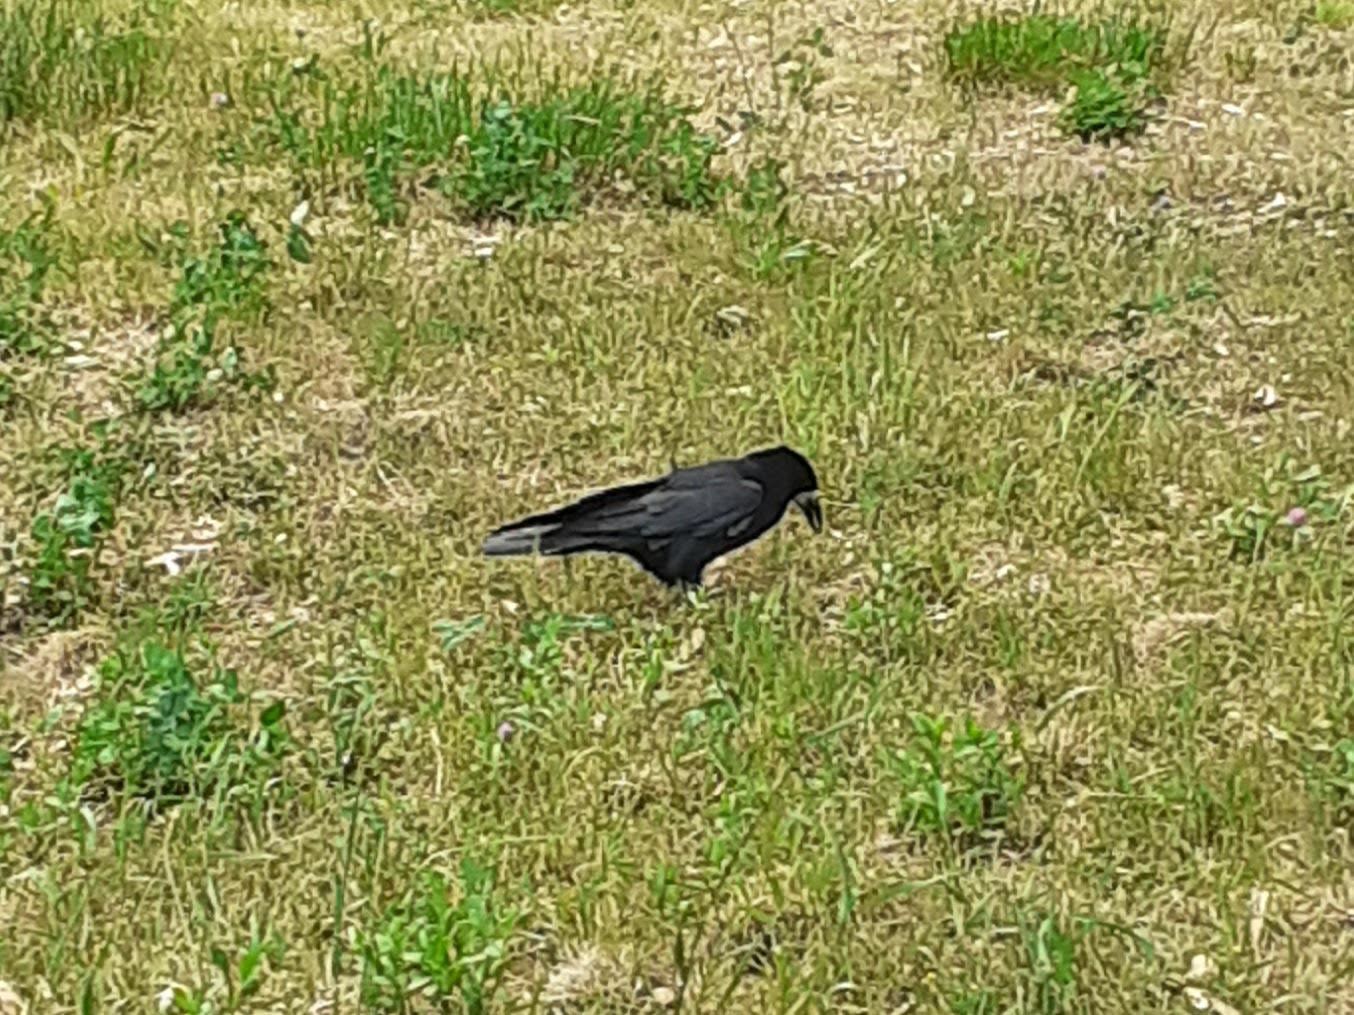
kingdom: Animalia
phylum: Chordata
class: Aves
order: Passeriformes
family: Corvidae
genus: Corvus
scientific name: Corvus frugilegus
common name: Rook
